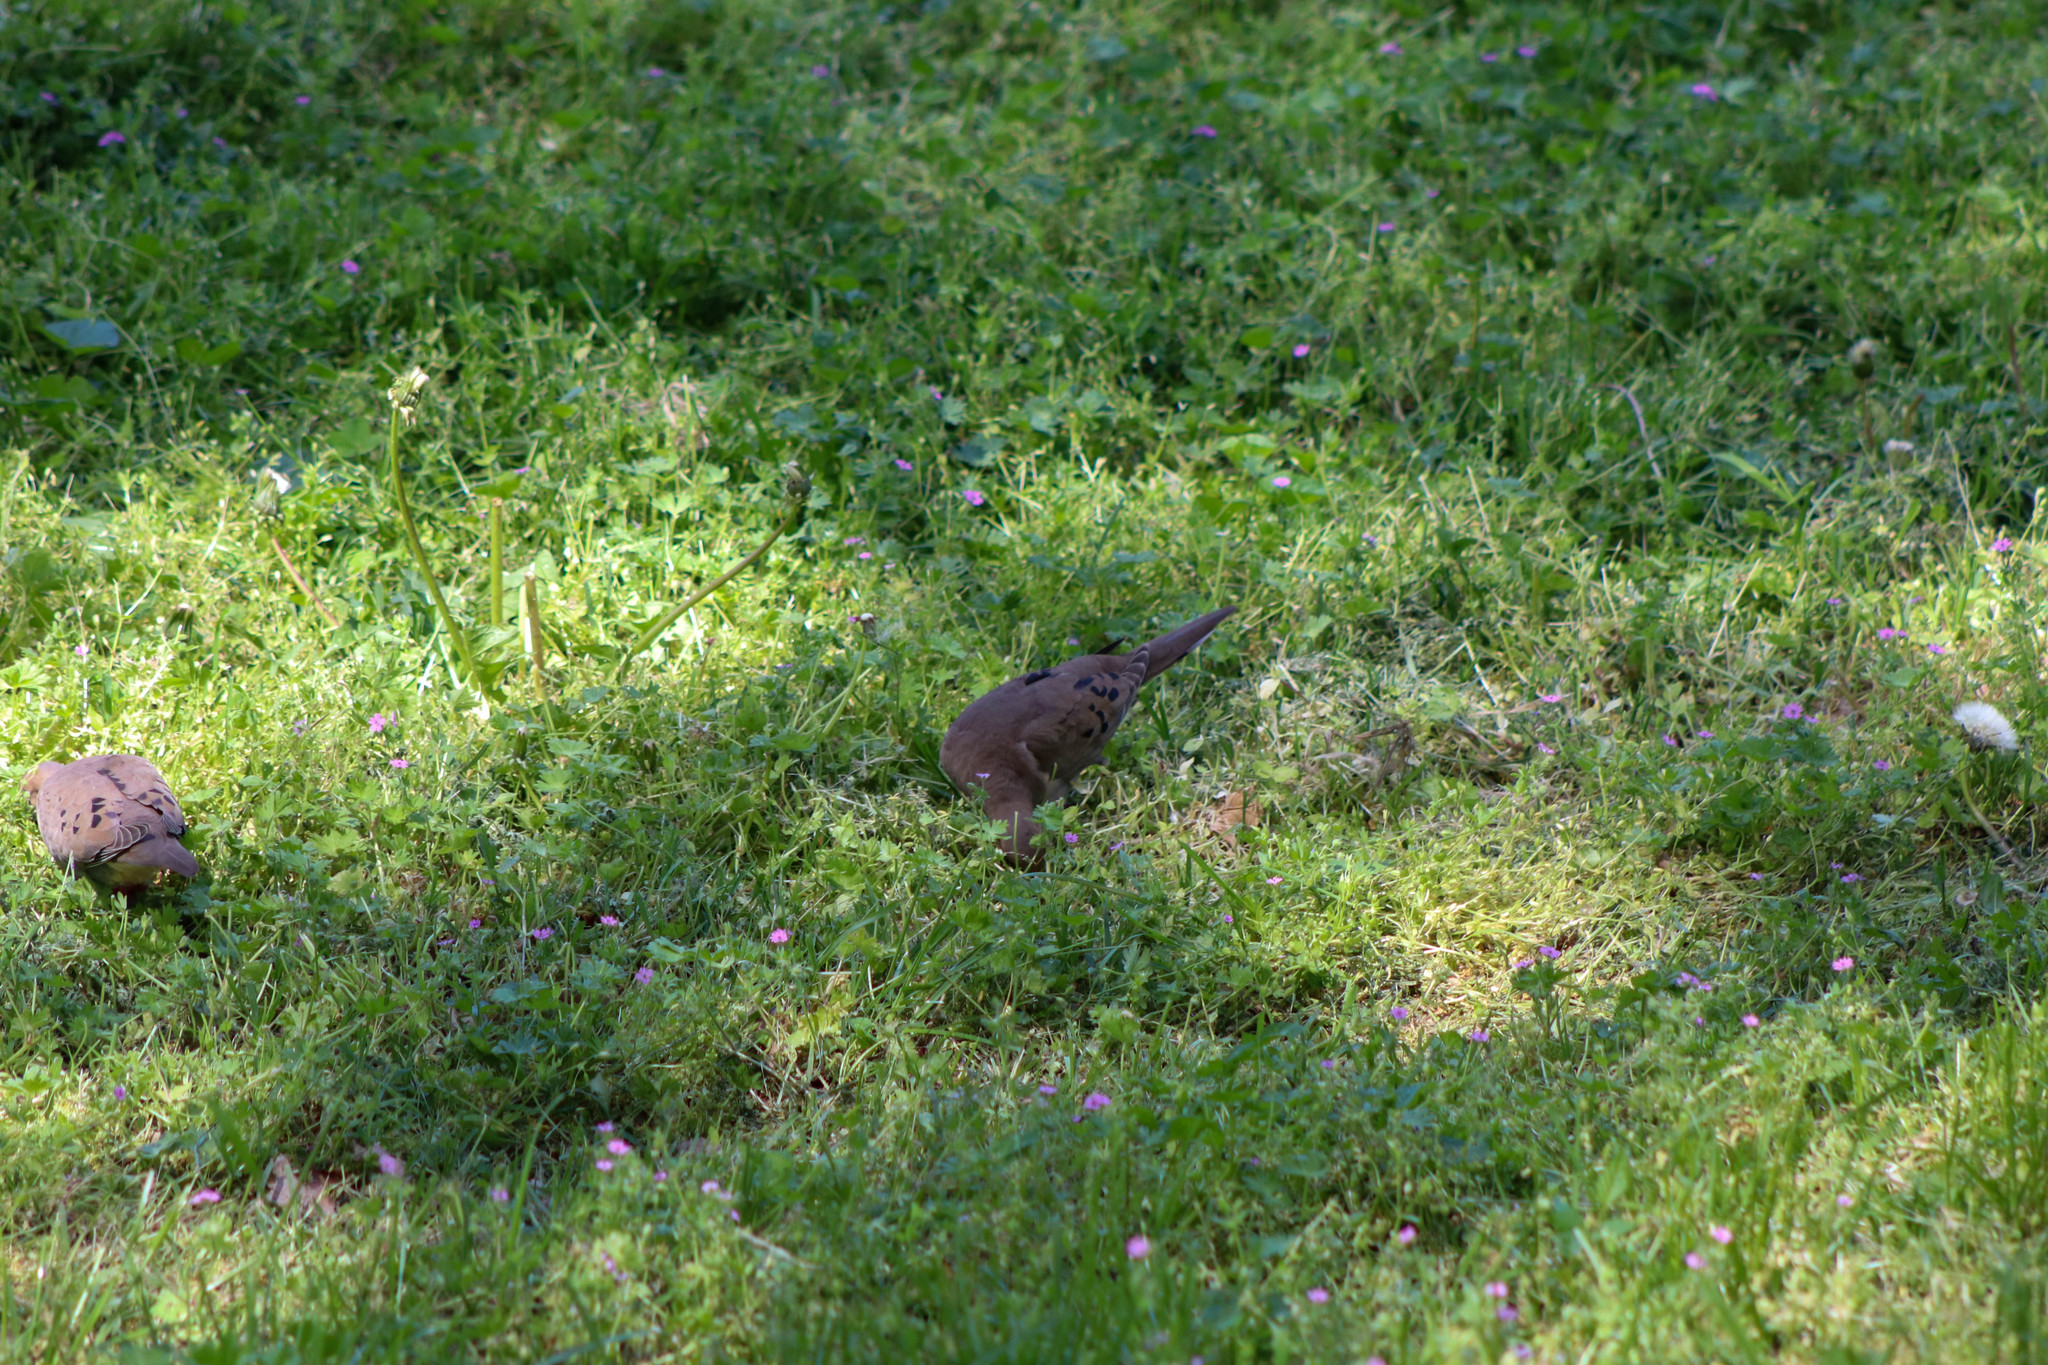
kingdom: Animalia
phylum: Chordata
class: Aves
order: Columbiformes
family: Columbidae
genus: Zenaida
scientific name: Zenaida macroura
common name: Mourning dove
